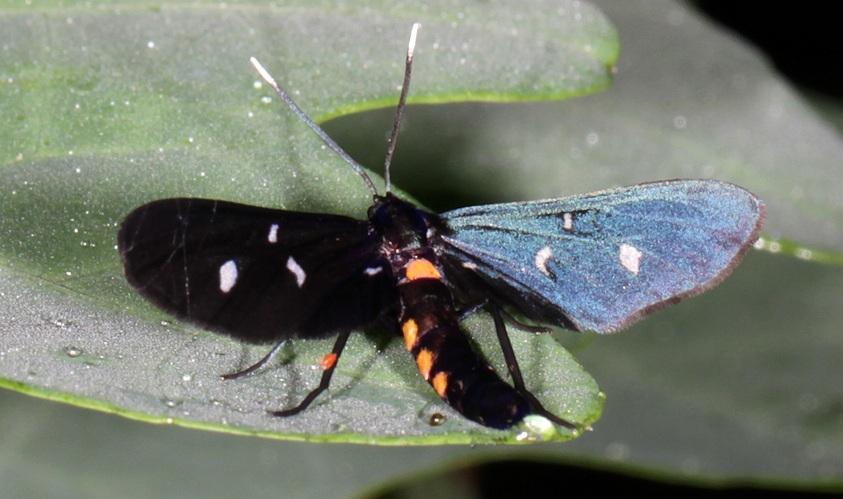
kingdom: Animalia
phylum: Arthropoda
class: Insecta
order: Lepidoptera
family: Erebidae
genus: Amata
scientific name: Amata pseudosimplex
